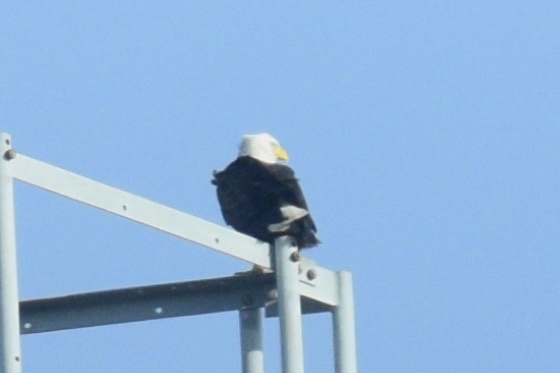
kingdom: Animalia
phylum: Chordata
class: Aves
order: Accipitriformes
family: Accipitridae
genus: Haliaeetus
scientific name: Haliaeetus leucocephalus
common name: Bald eagle
